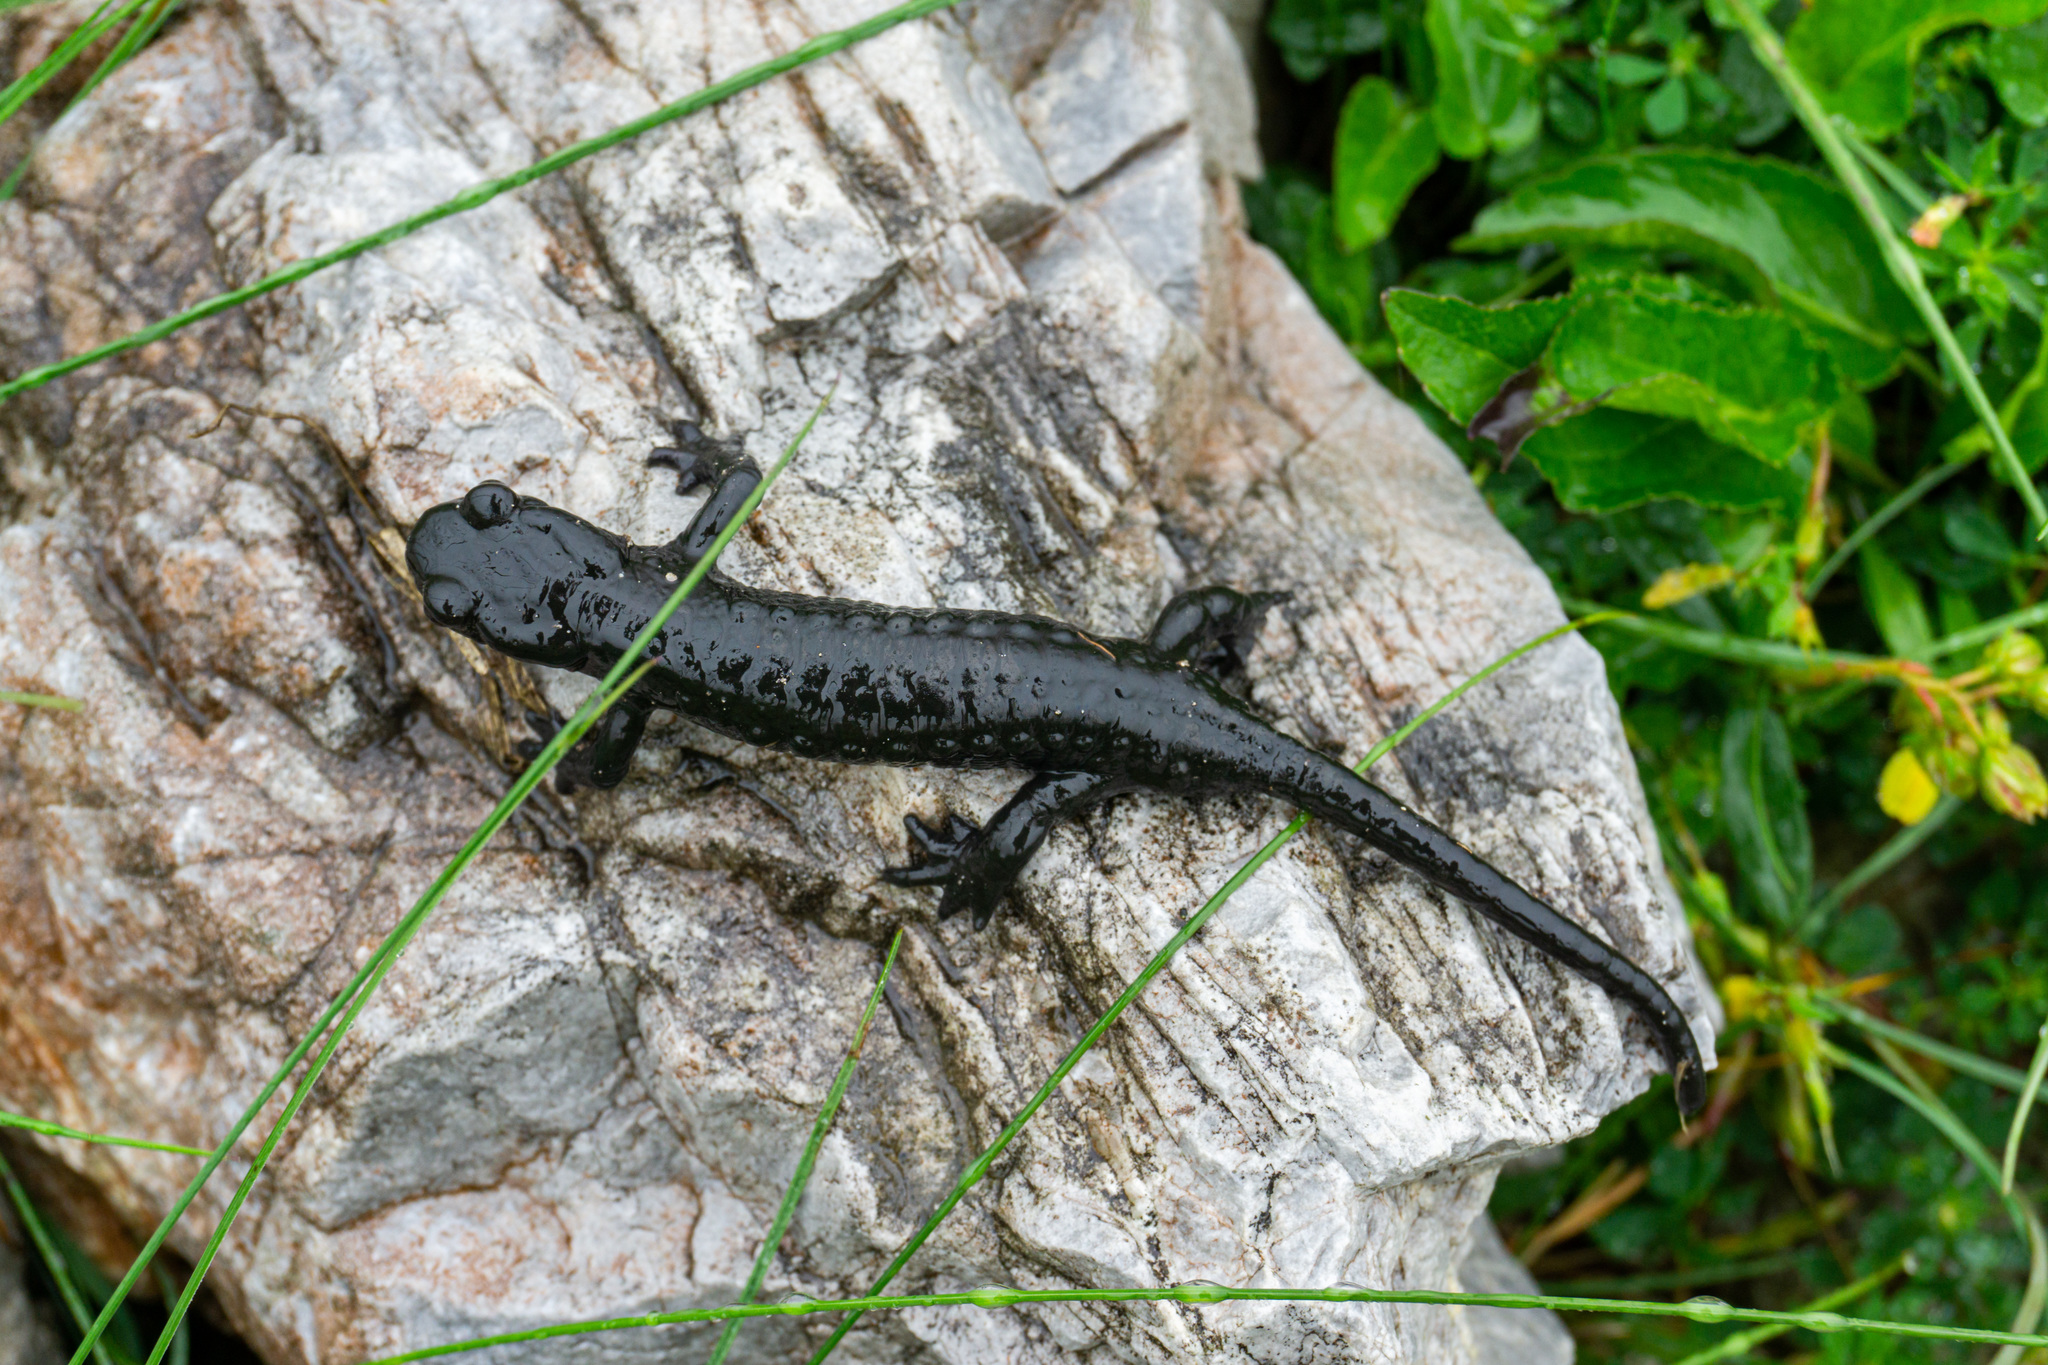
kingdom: Animalia
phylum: Chordata
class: Amphibia
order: Caudata
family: Salamandridae
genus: Salamandra
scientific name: Salamandra atra
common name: Alpine salamander
